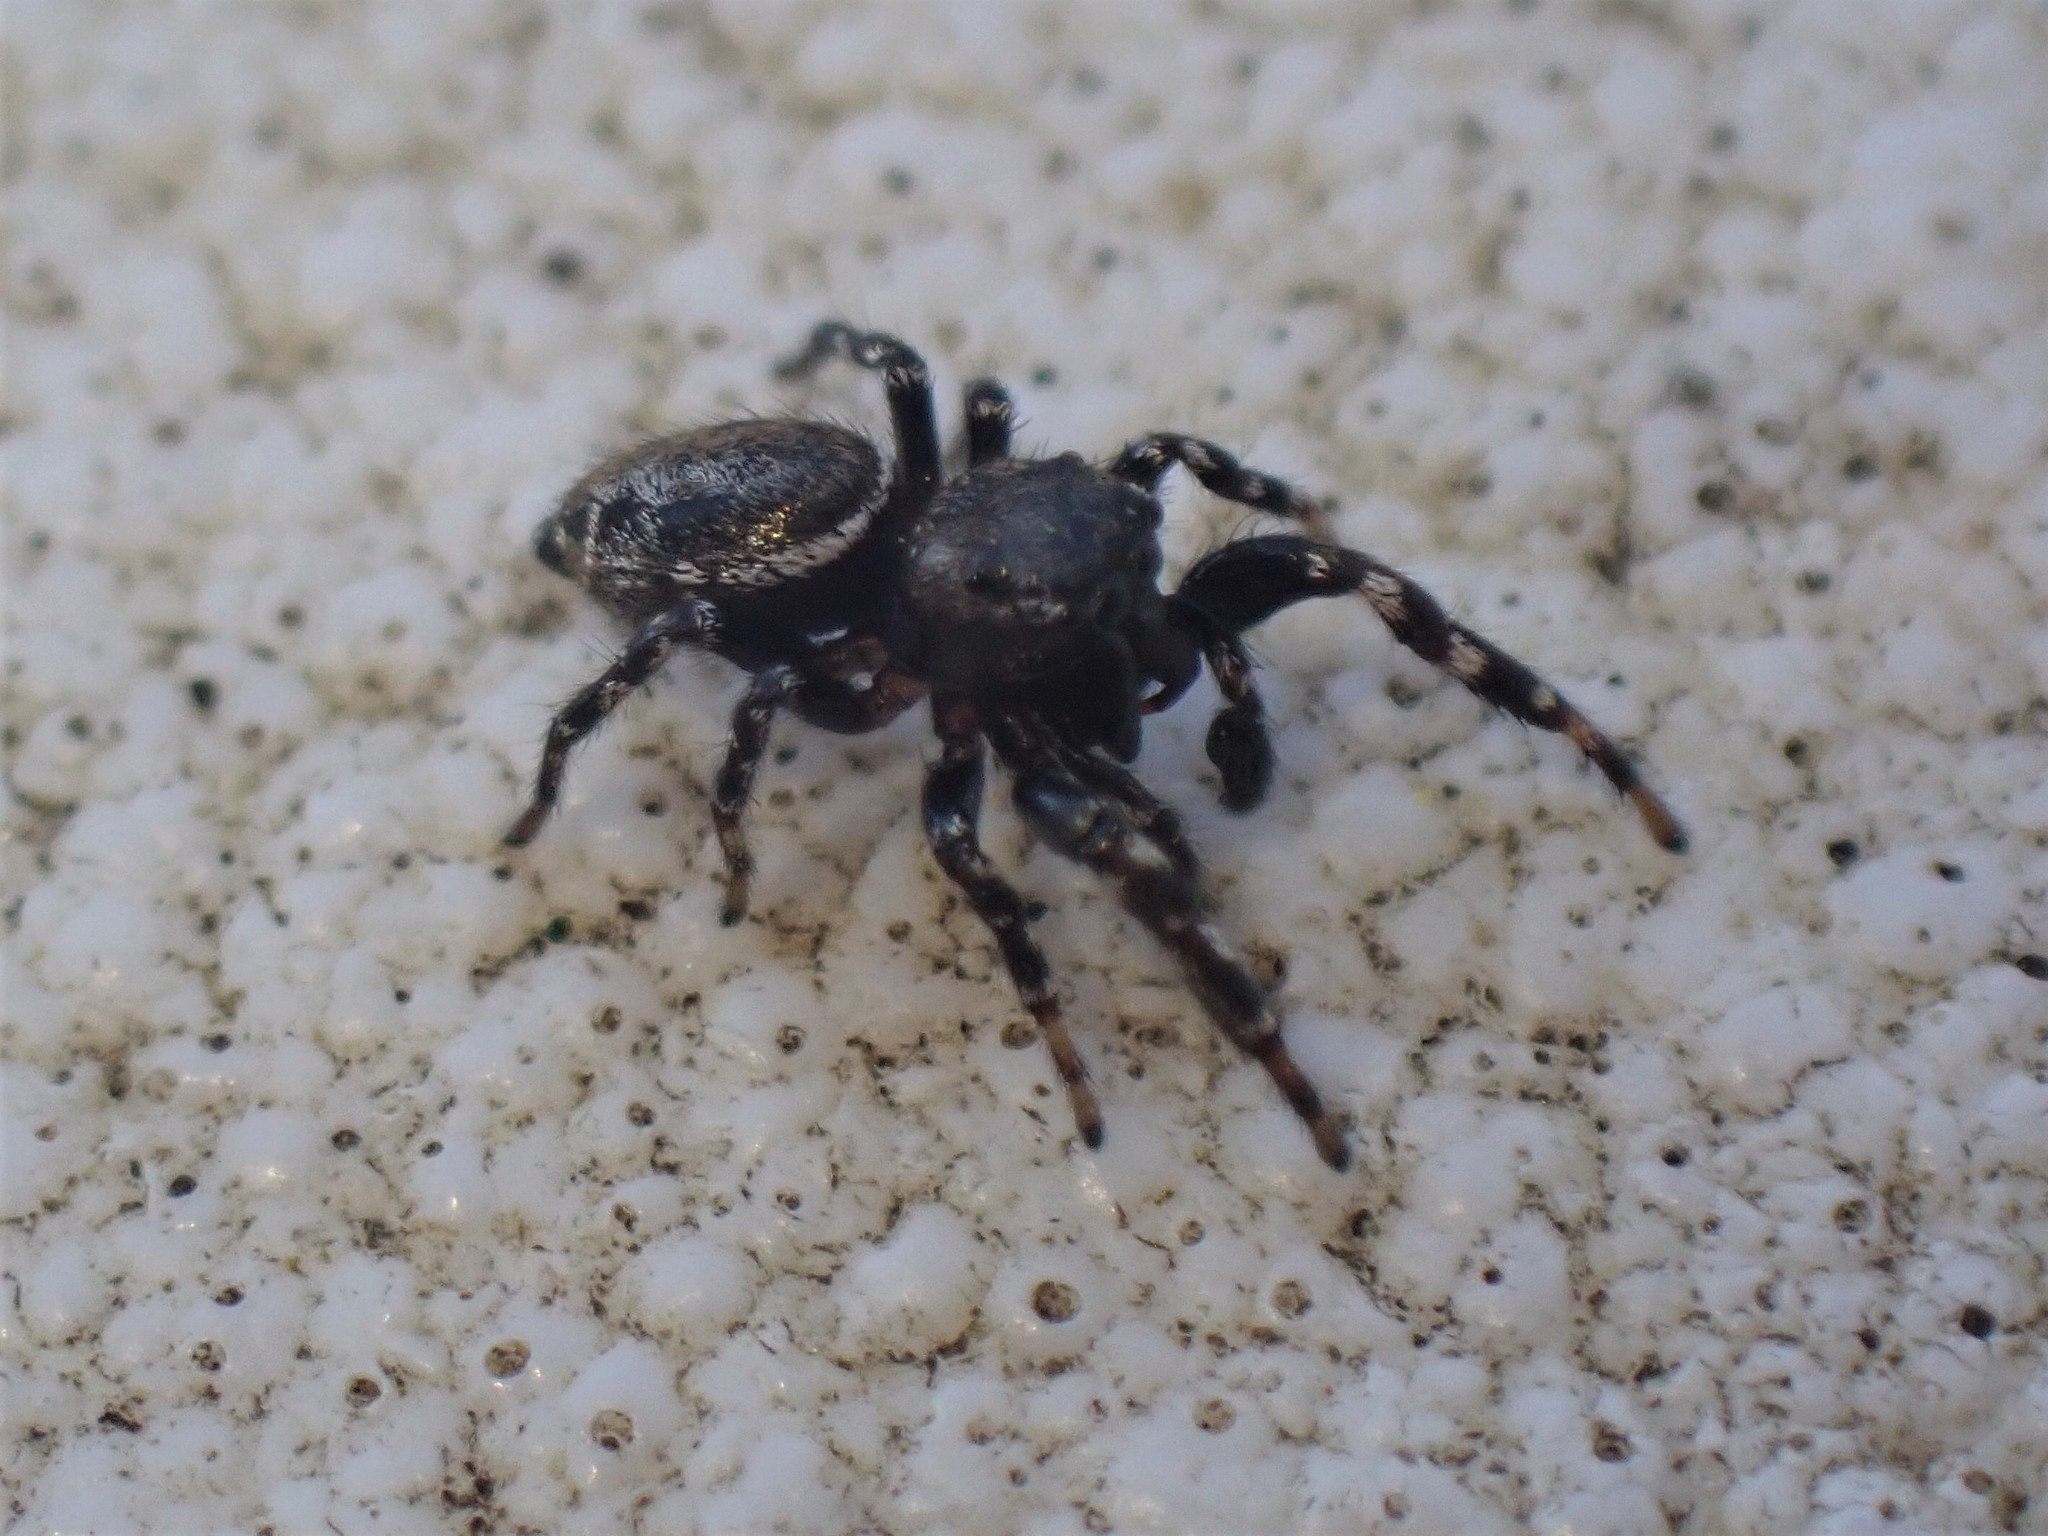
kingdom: Animalia
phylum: Arthropoda
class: Arachnida
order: Araneae
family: Salticidae
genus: Pelegrina
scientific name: Pelegrina aeneola
